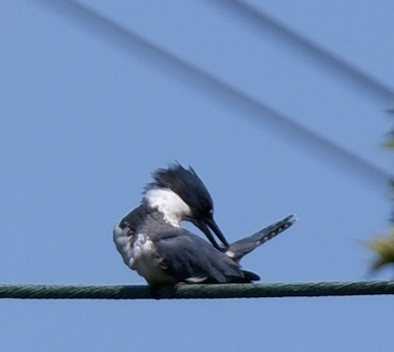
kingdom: Animalia
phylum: Chordata
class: Aves
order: Coraciiformes
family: Alcedinidae
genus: Megaceryle
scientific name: Megaceryle alcyon
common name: Belted kingfisher
